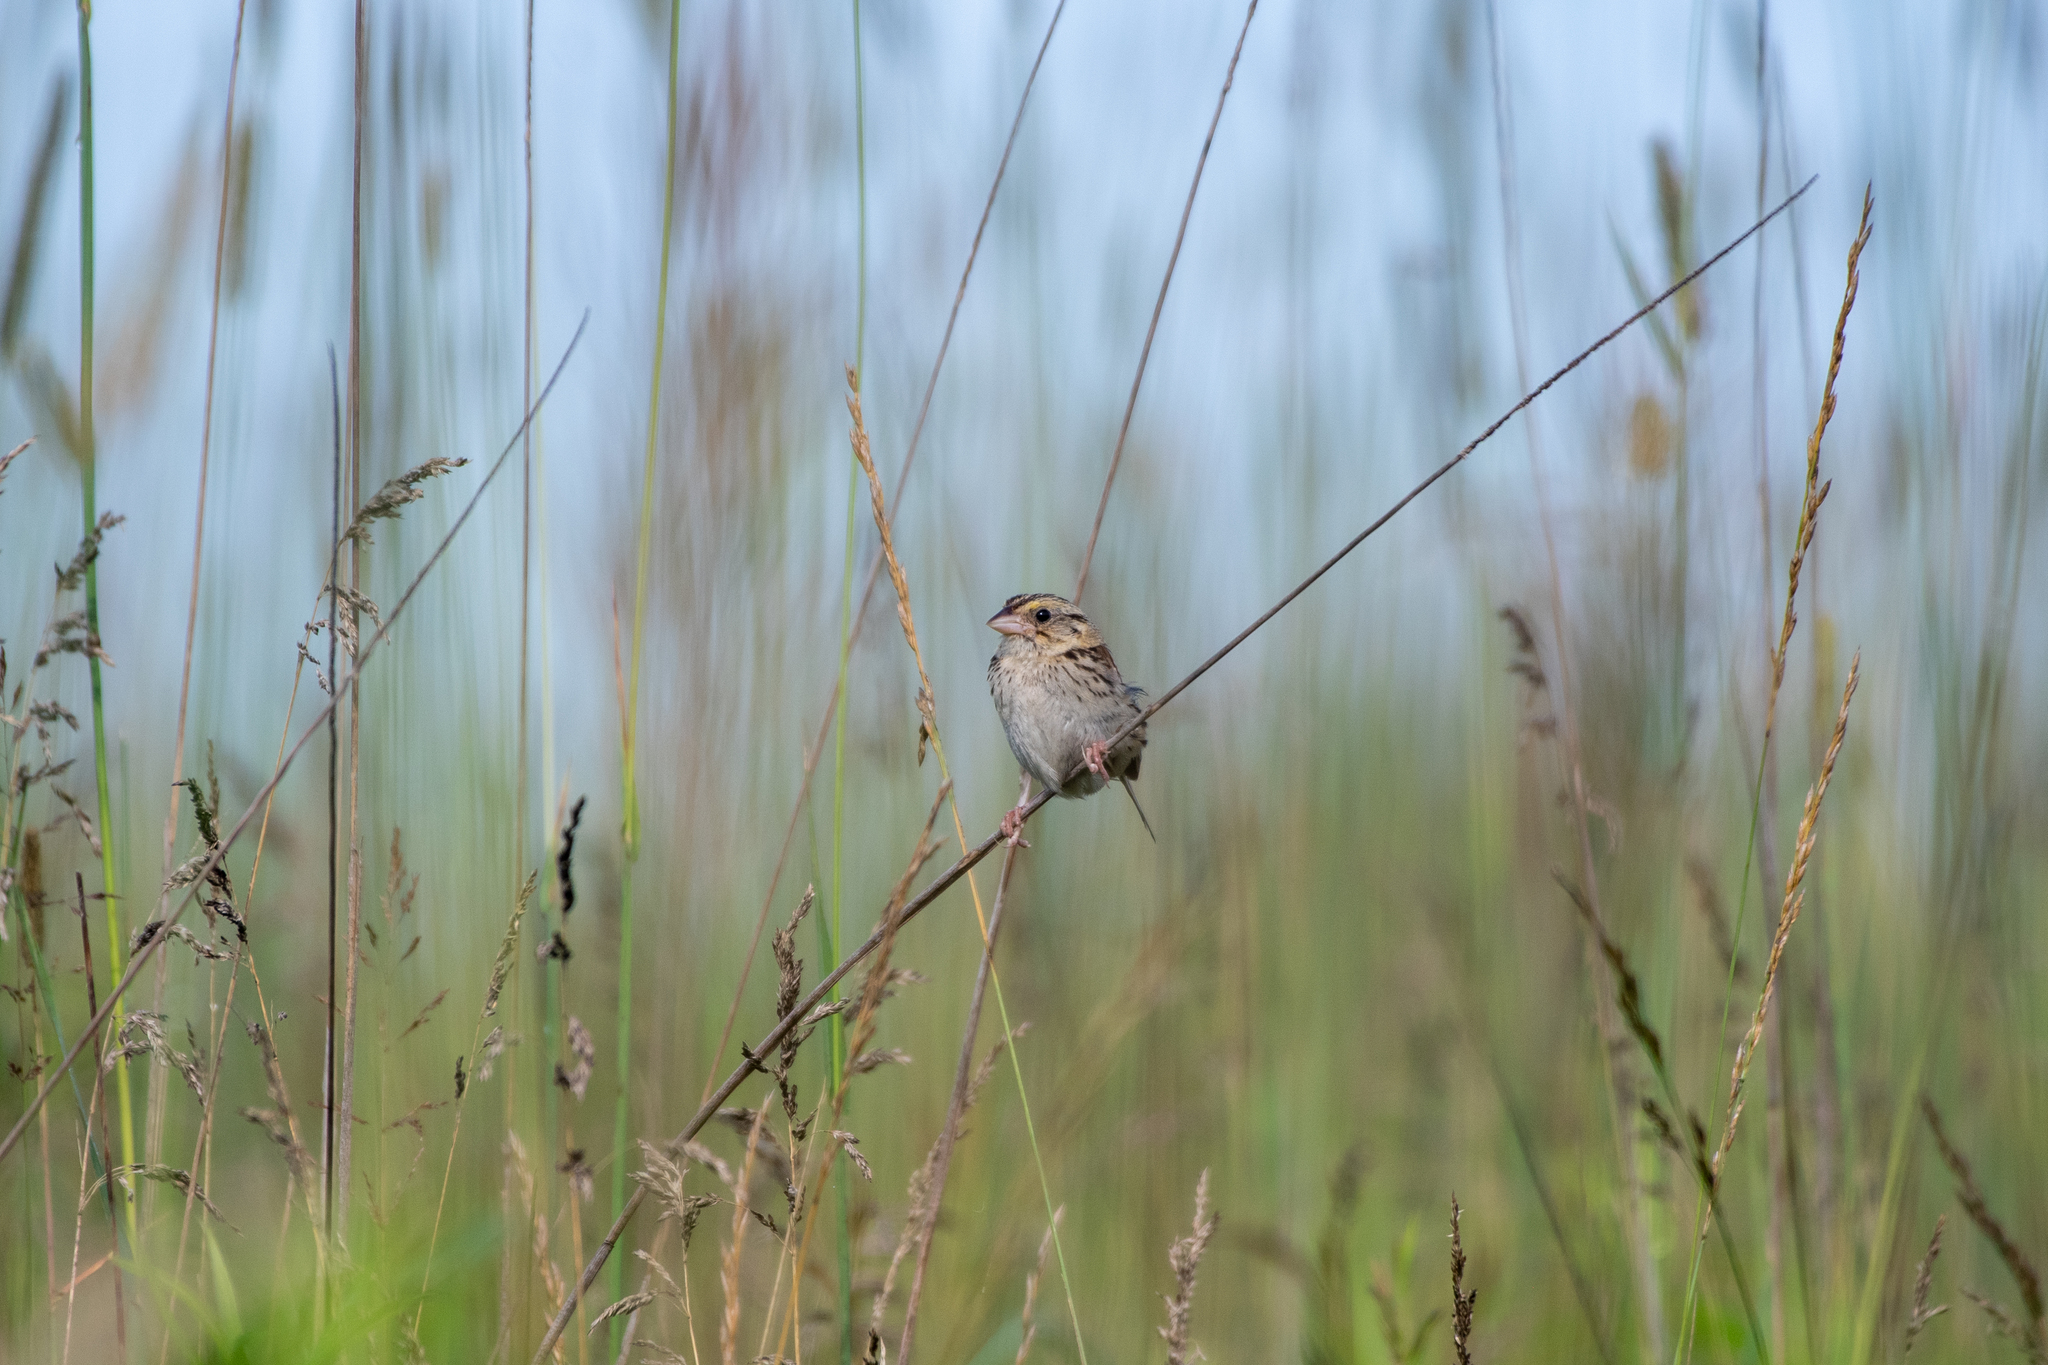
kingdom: Animalia
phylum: Chordata
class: Aves
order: Passeriformes
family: Passerellidae
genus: Centronyx
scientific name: Centronyx henslowii
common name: Henslow's sparrow
